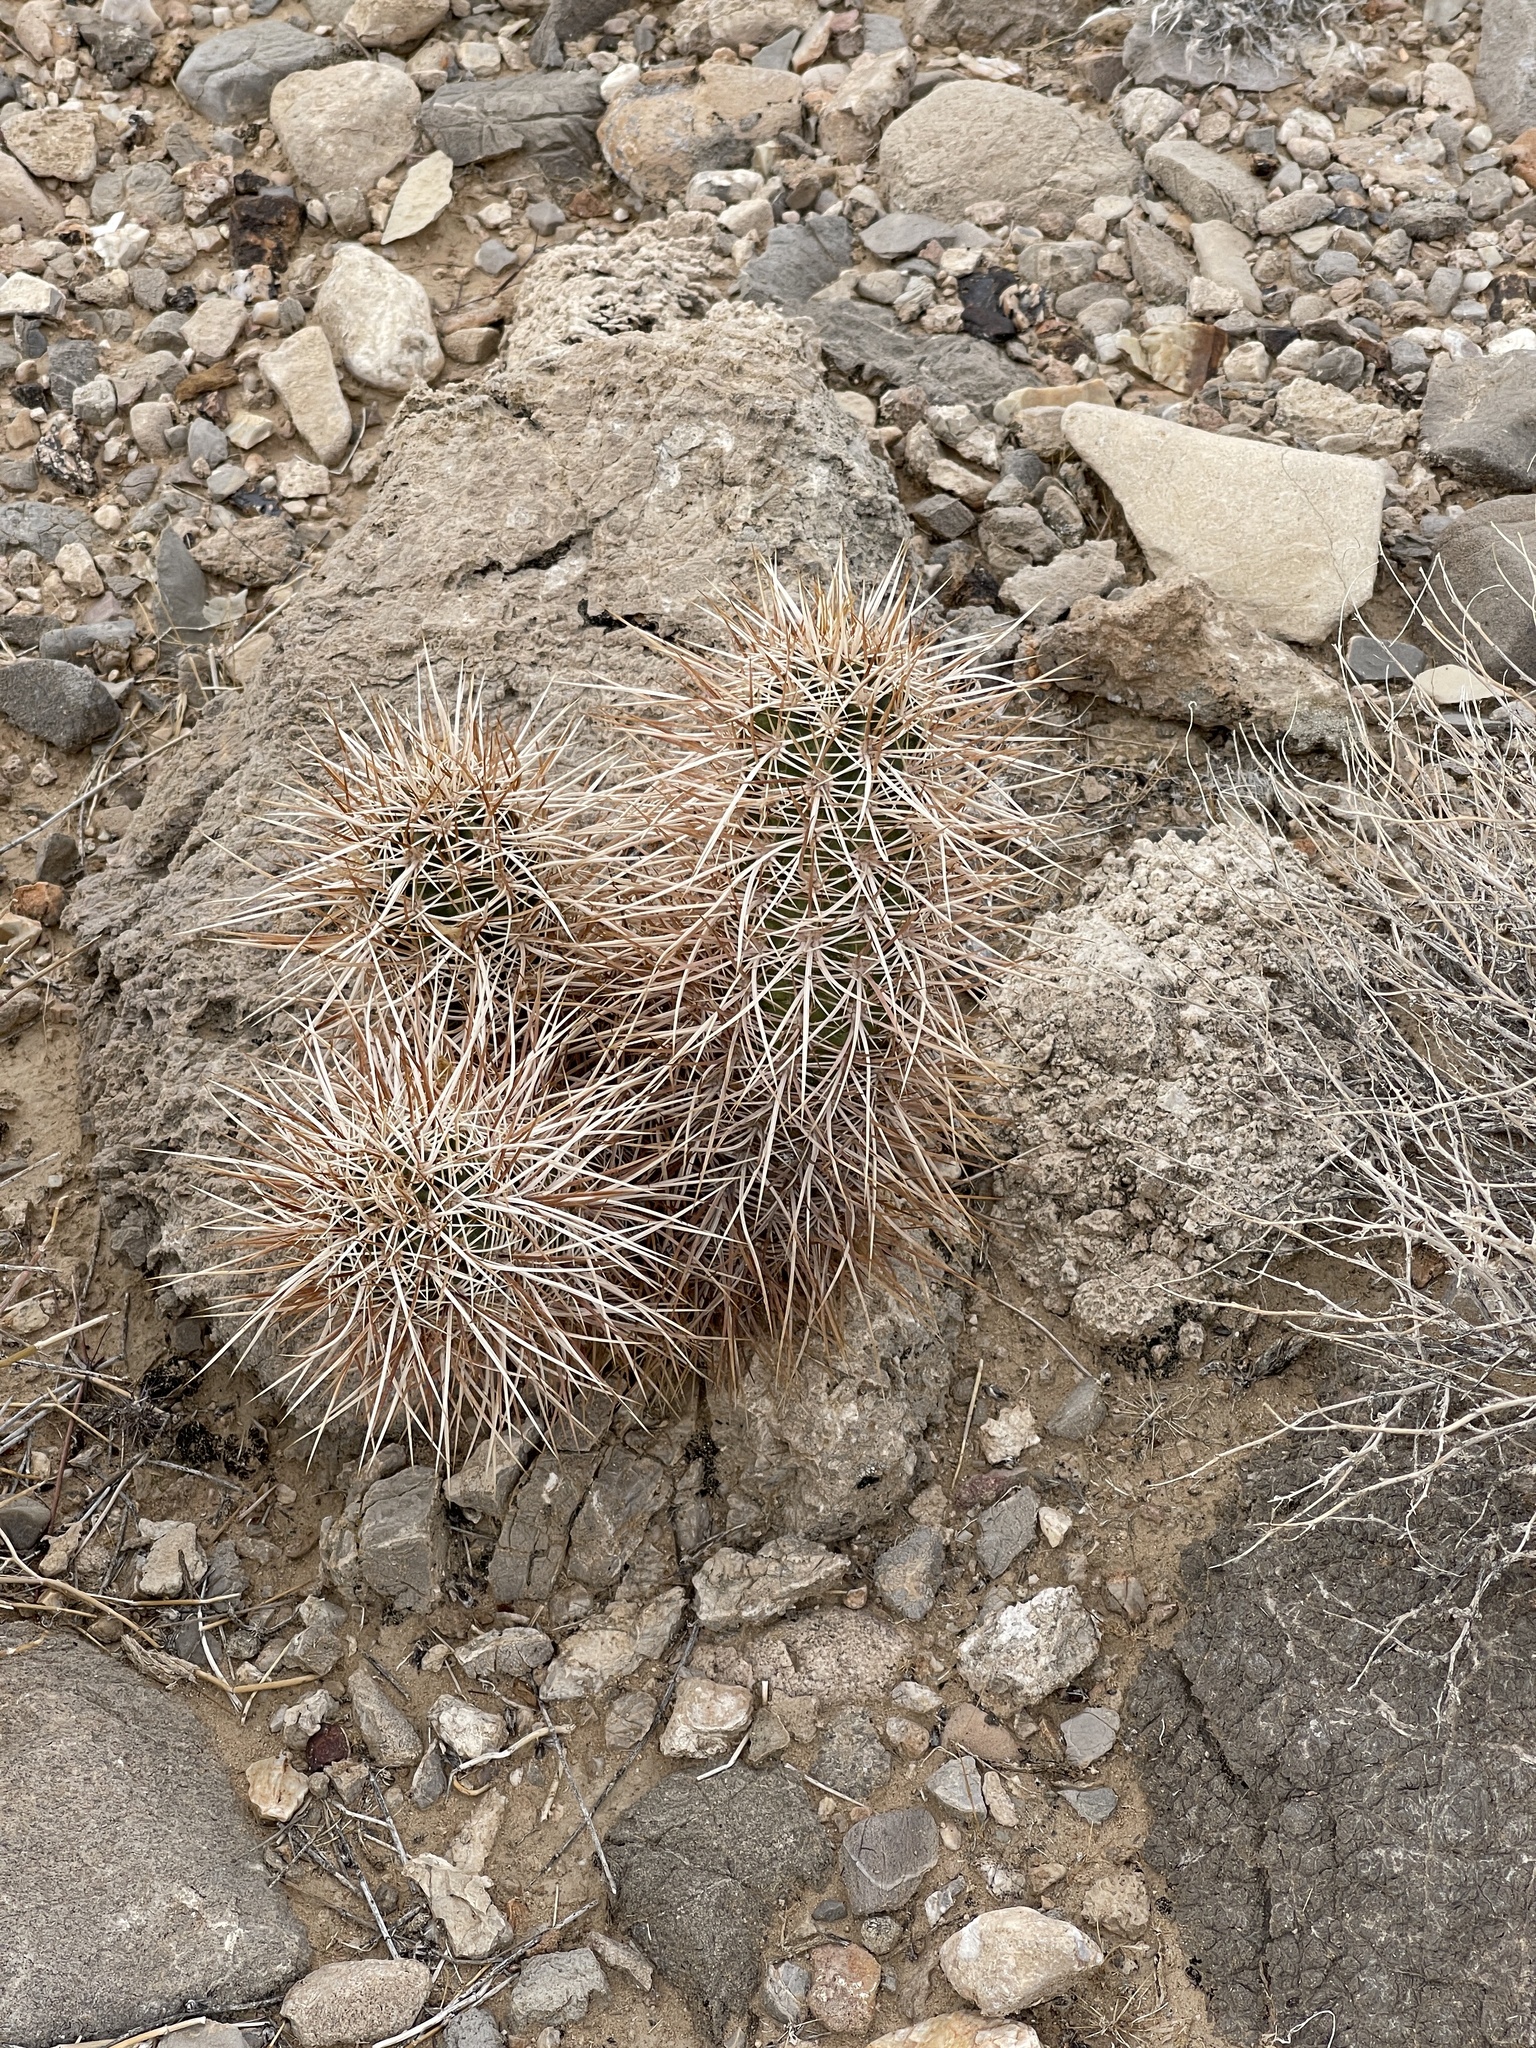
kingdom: Plantae
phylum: Tracheophyta
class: Magnoliopsida
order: Caryophyllales
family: Cactaceae
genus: Echinocereus
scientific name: Echinocereus engelmannii
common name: Engelmann's hedgehog cactus
